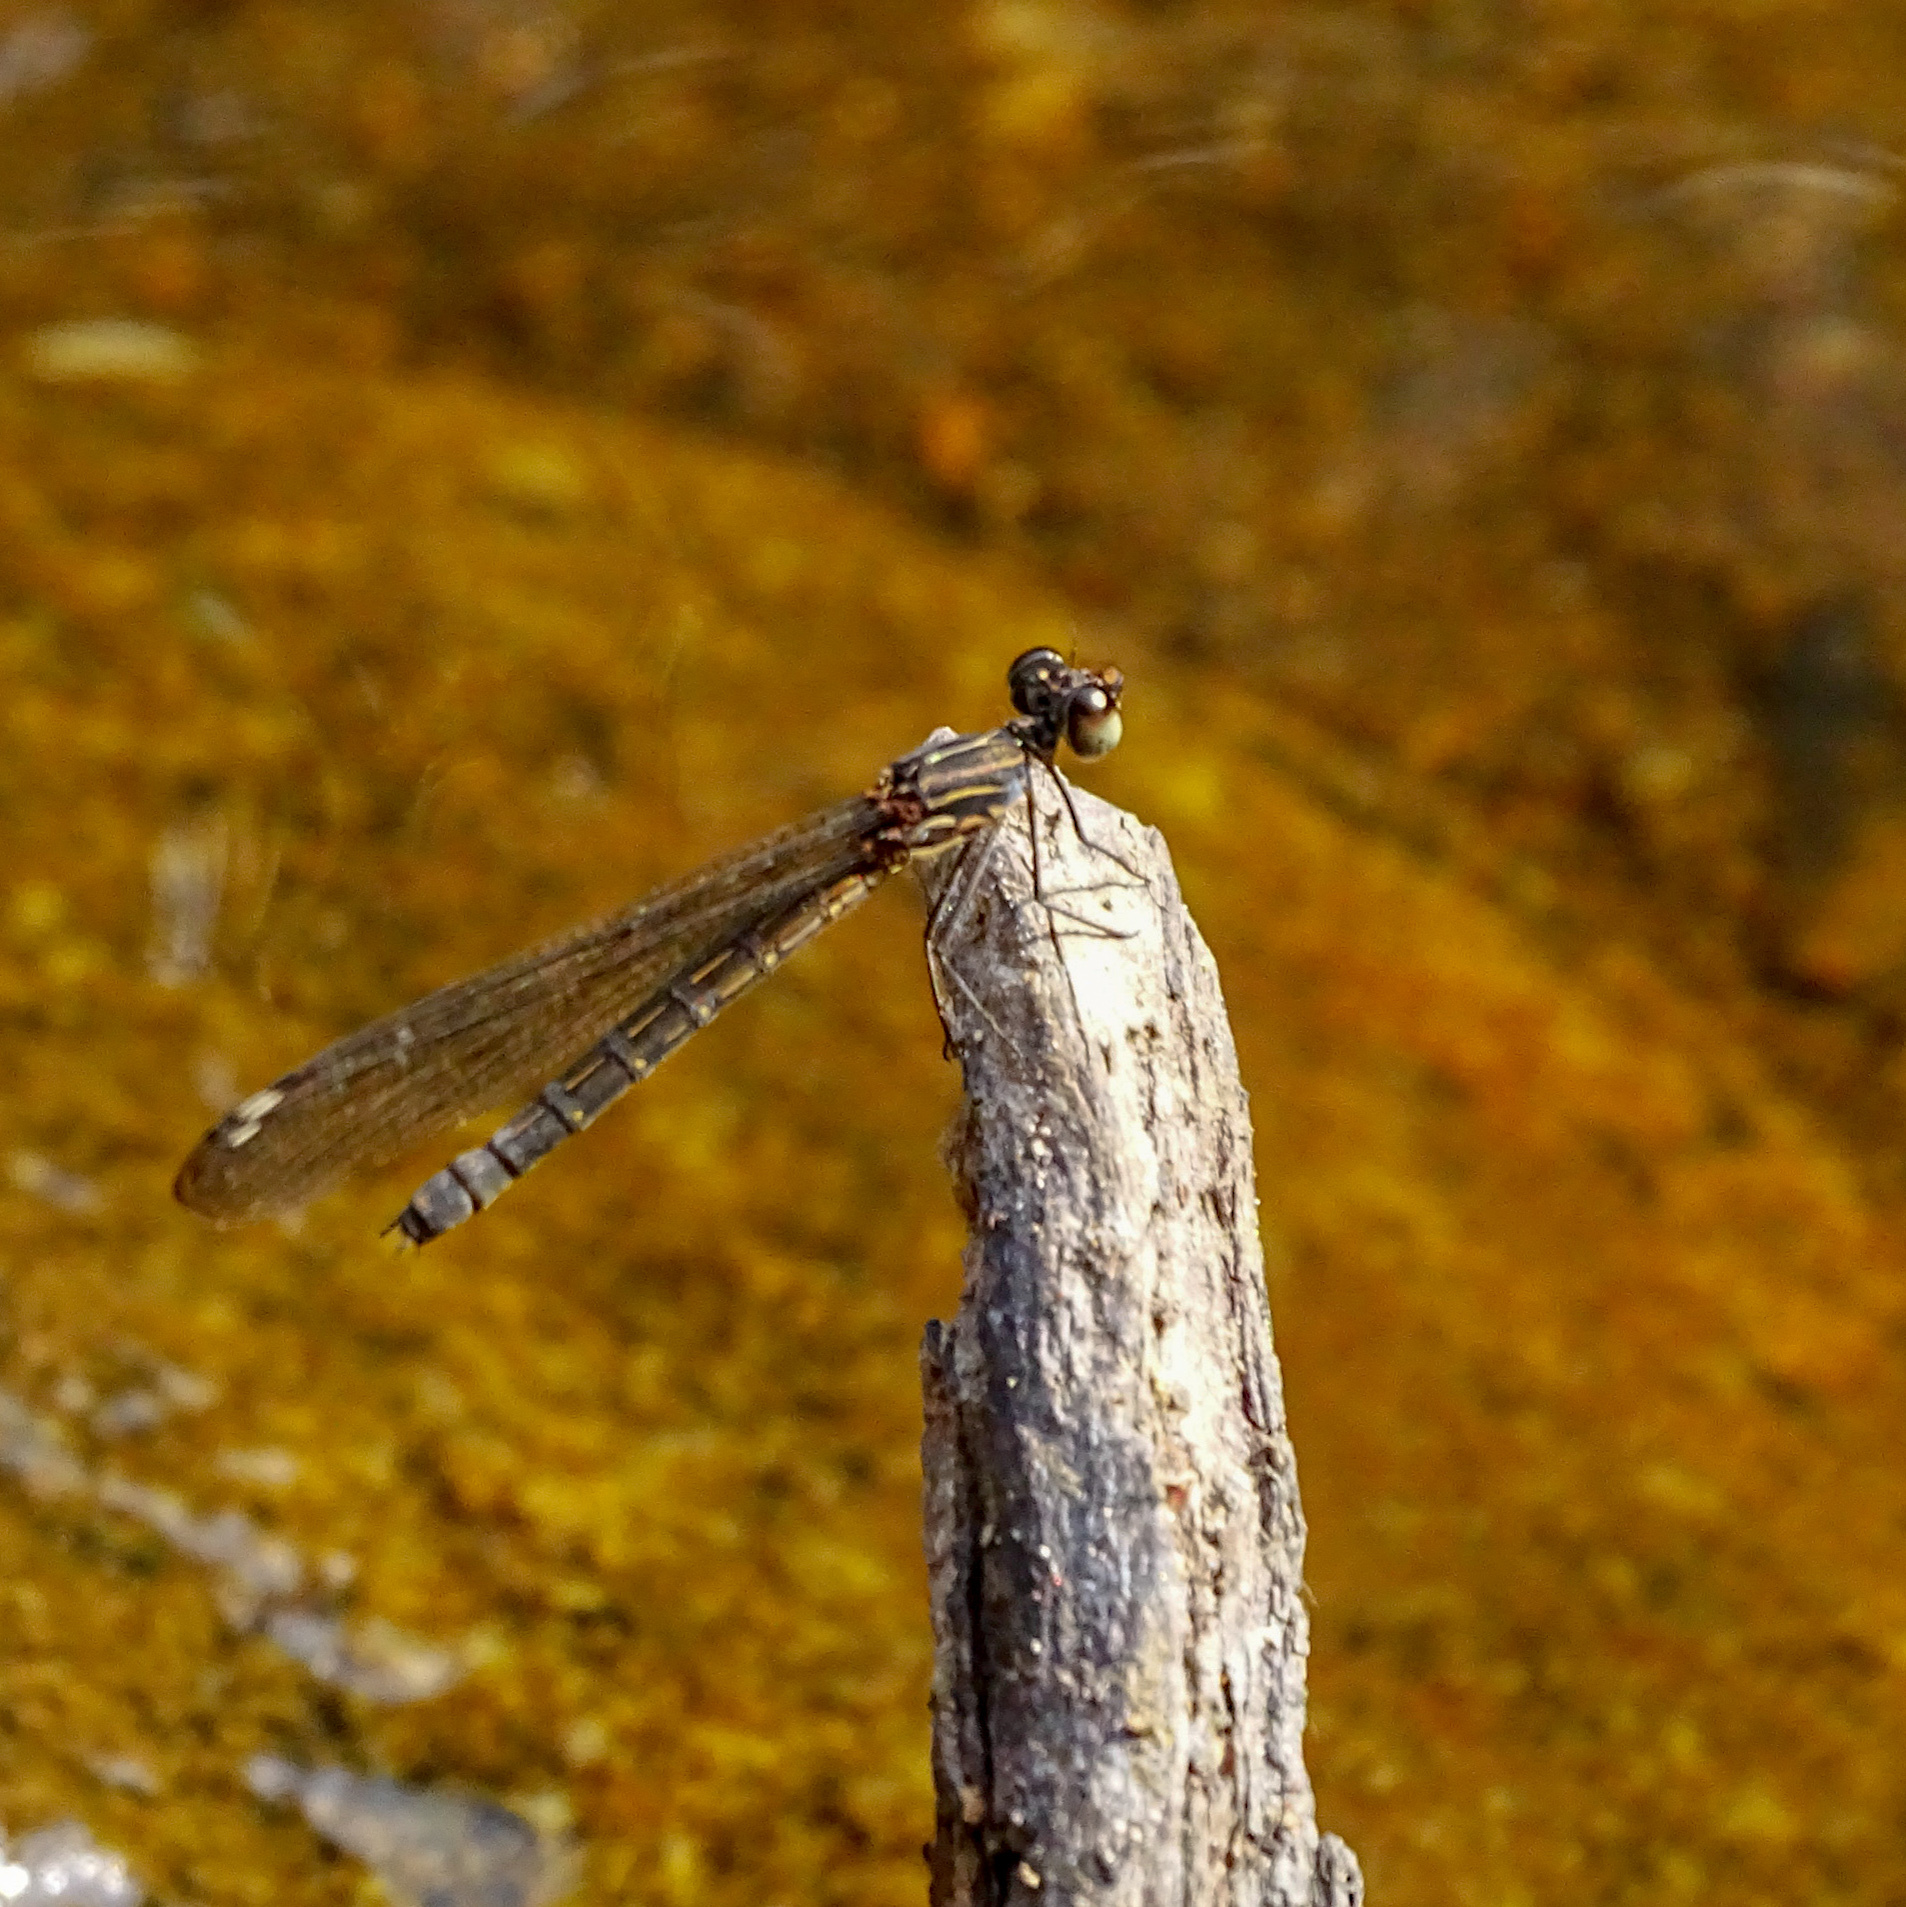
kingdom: Animalia
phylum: Arthropoda
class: Insecta
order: Odonata
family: Chlorocyphidae
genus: Heliocypha
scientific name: Heliocypha bisignata
